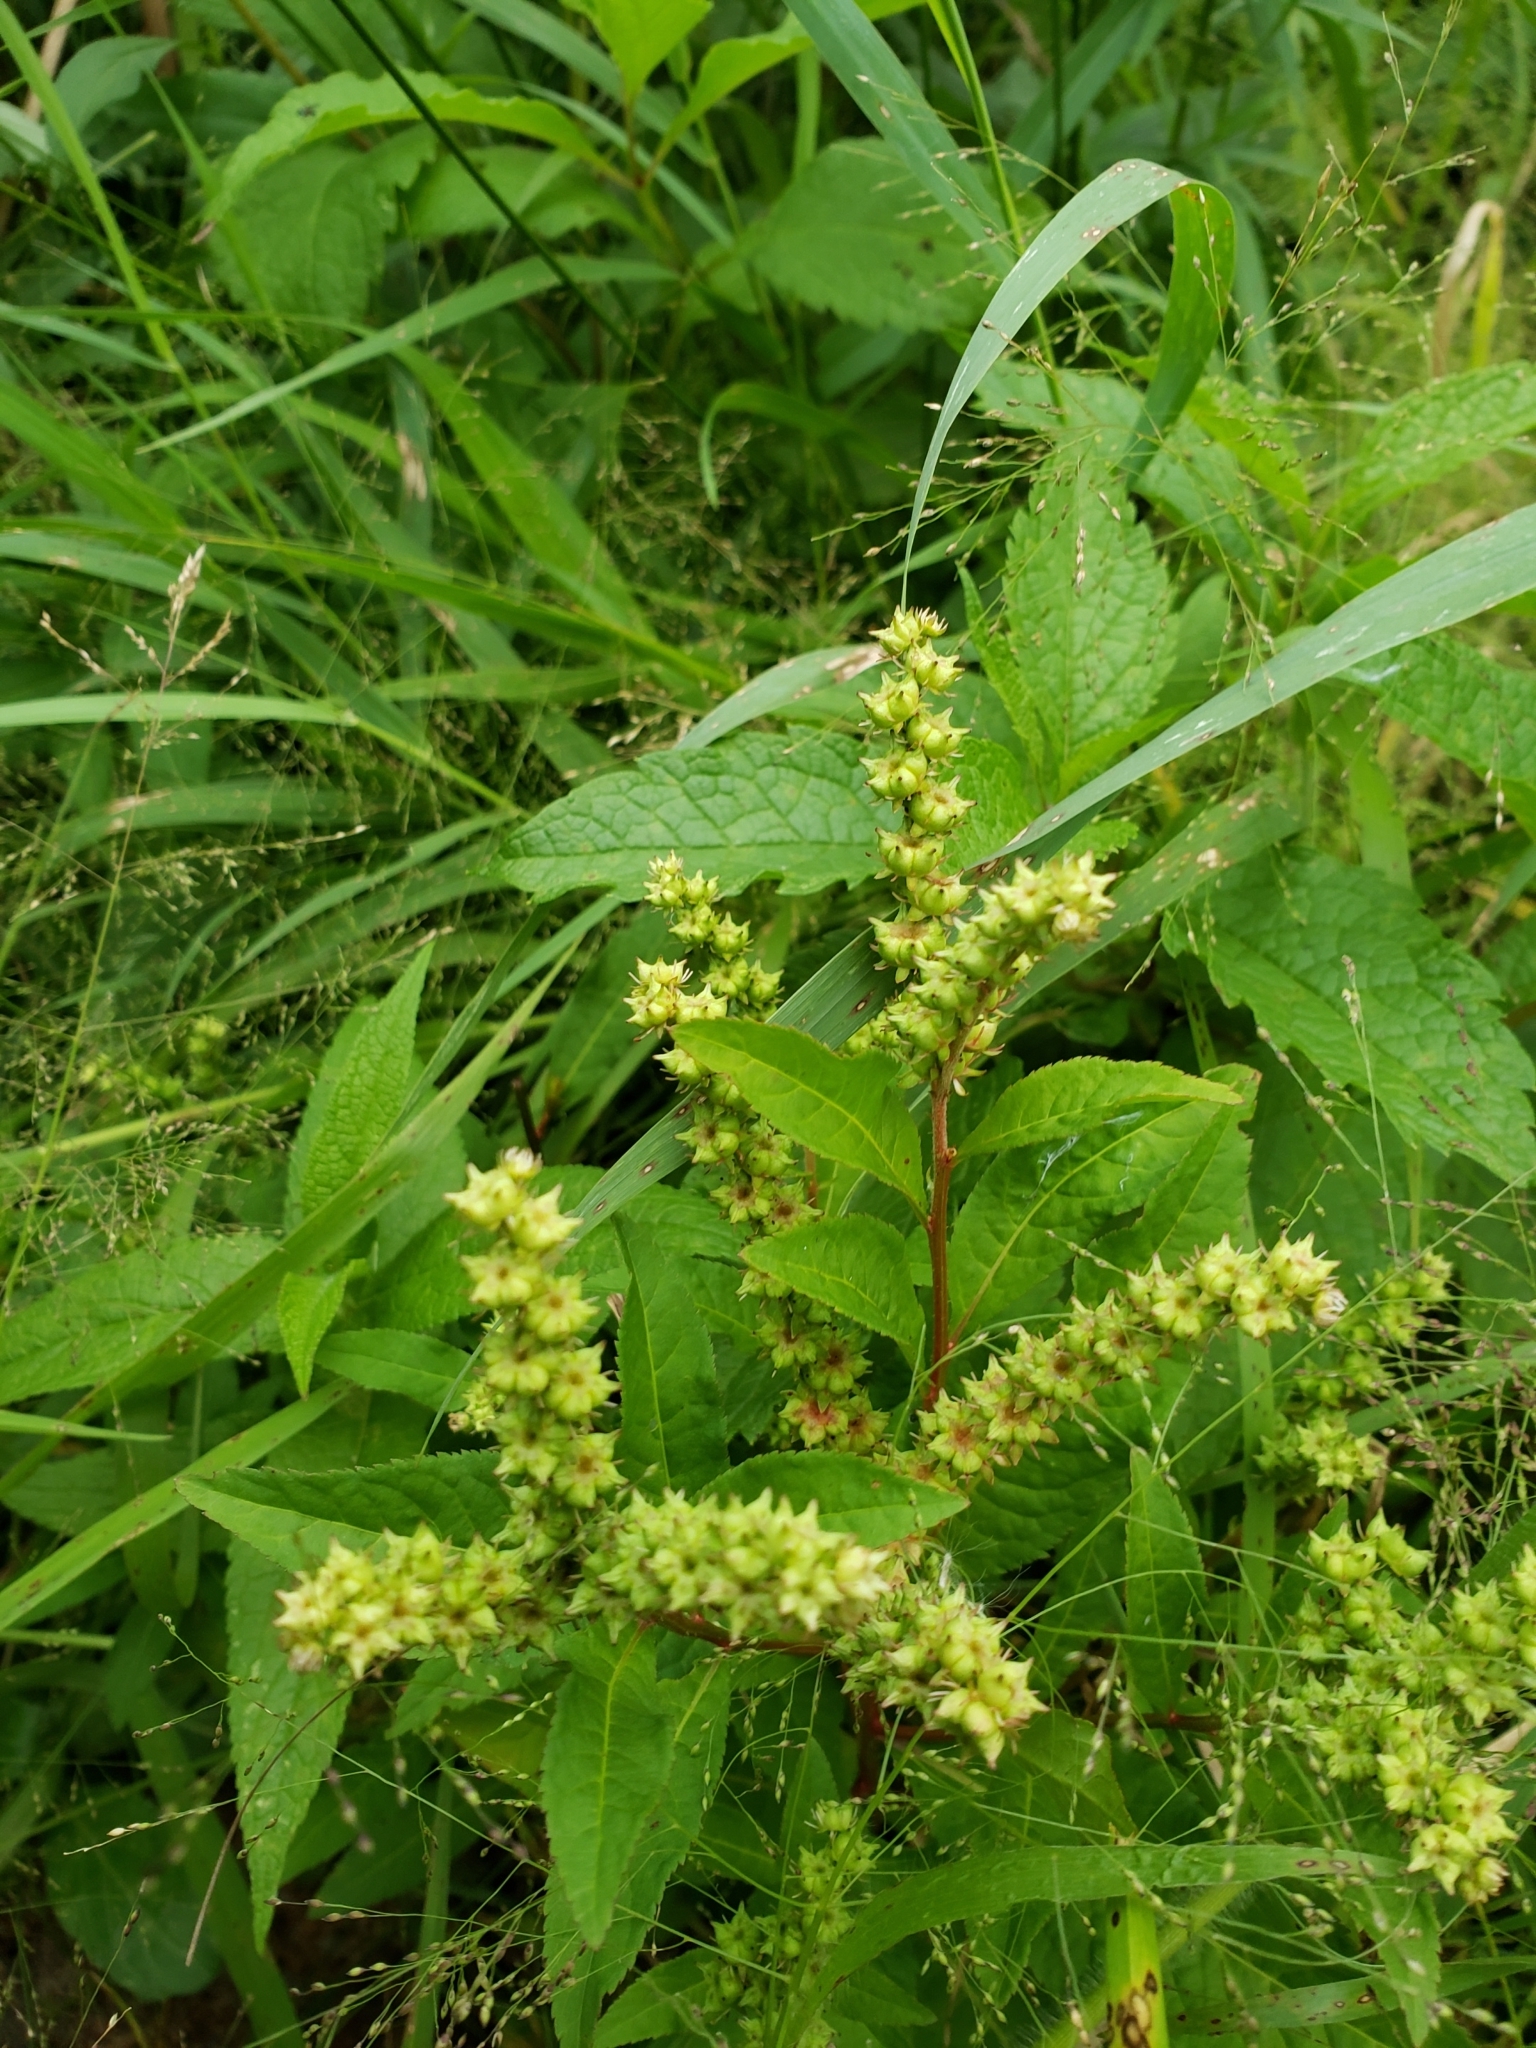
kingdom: Plantae
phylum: Tracheophyta
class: Magnoliopsida
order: Saxifragales
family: Penthoraceae
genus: Penthorum
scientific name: Penthorum sedoides
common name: Ditch stonecrop
